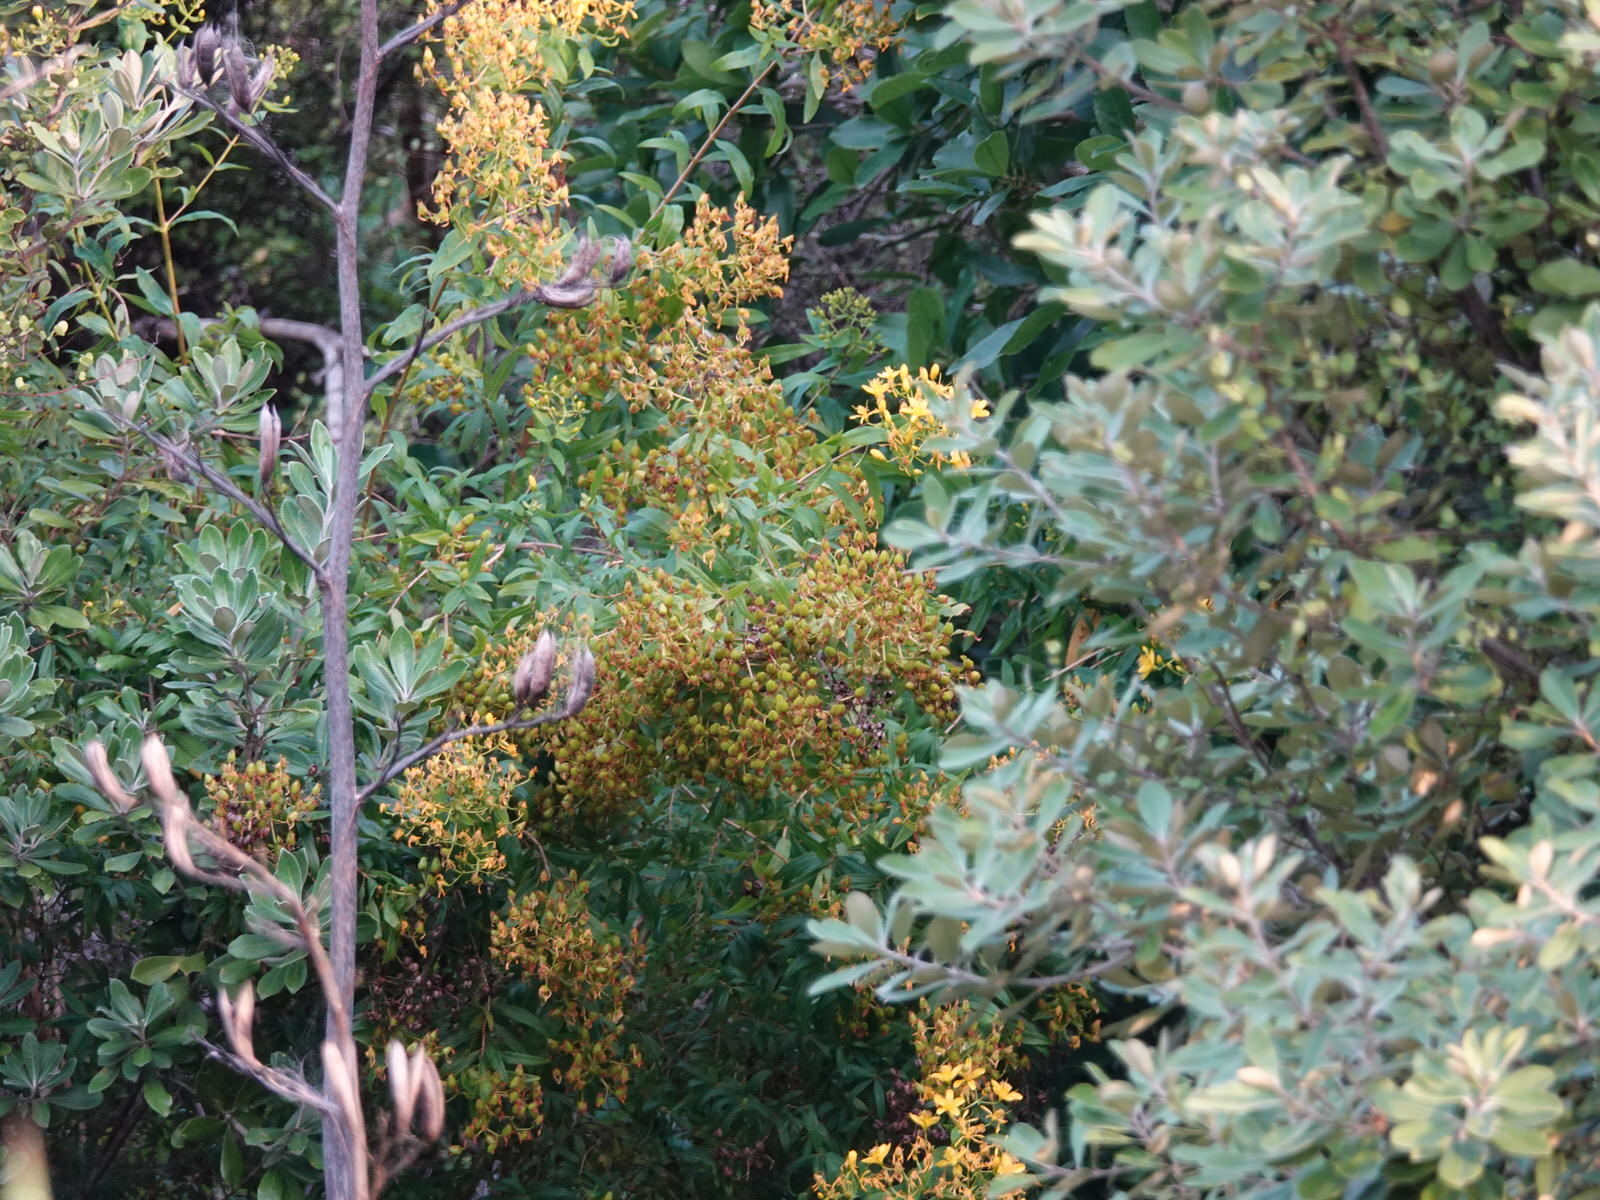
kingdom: Plantae
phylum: Tracheophyta
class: Magnoliopsida
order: Malpighiales
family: Hypericaceae
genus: Hypericum
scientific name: Hypericum canariense
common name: Canary island st. johnswort
